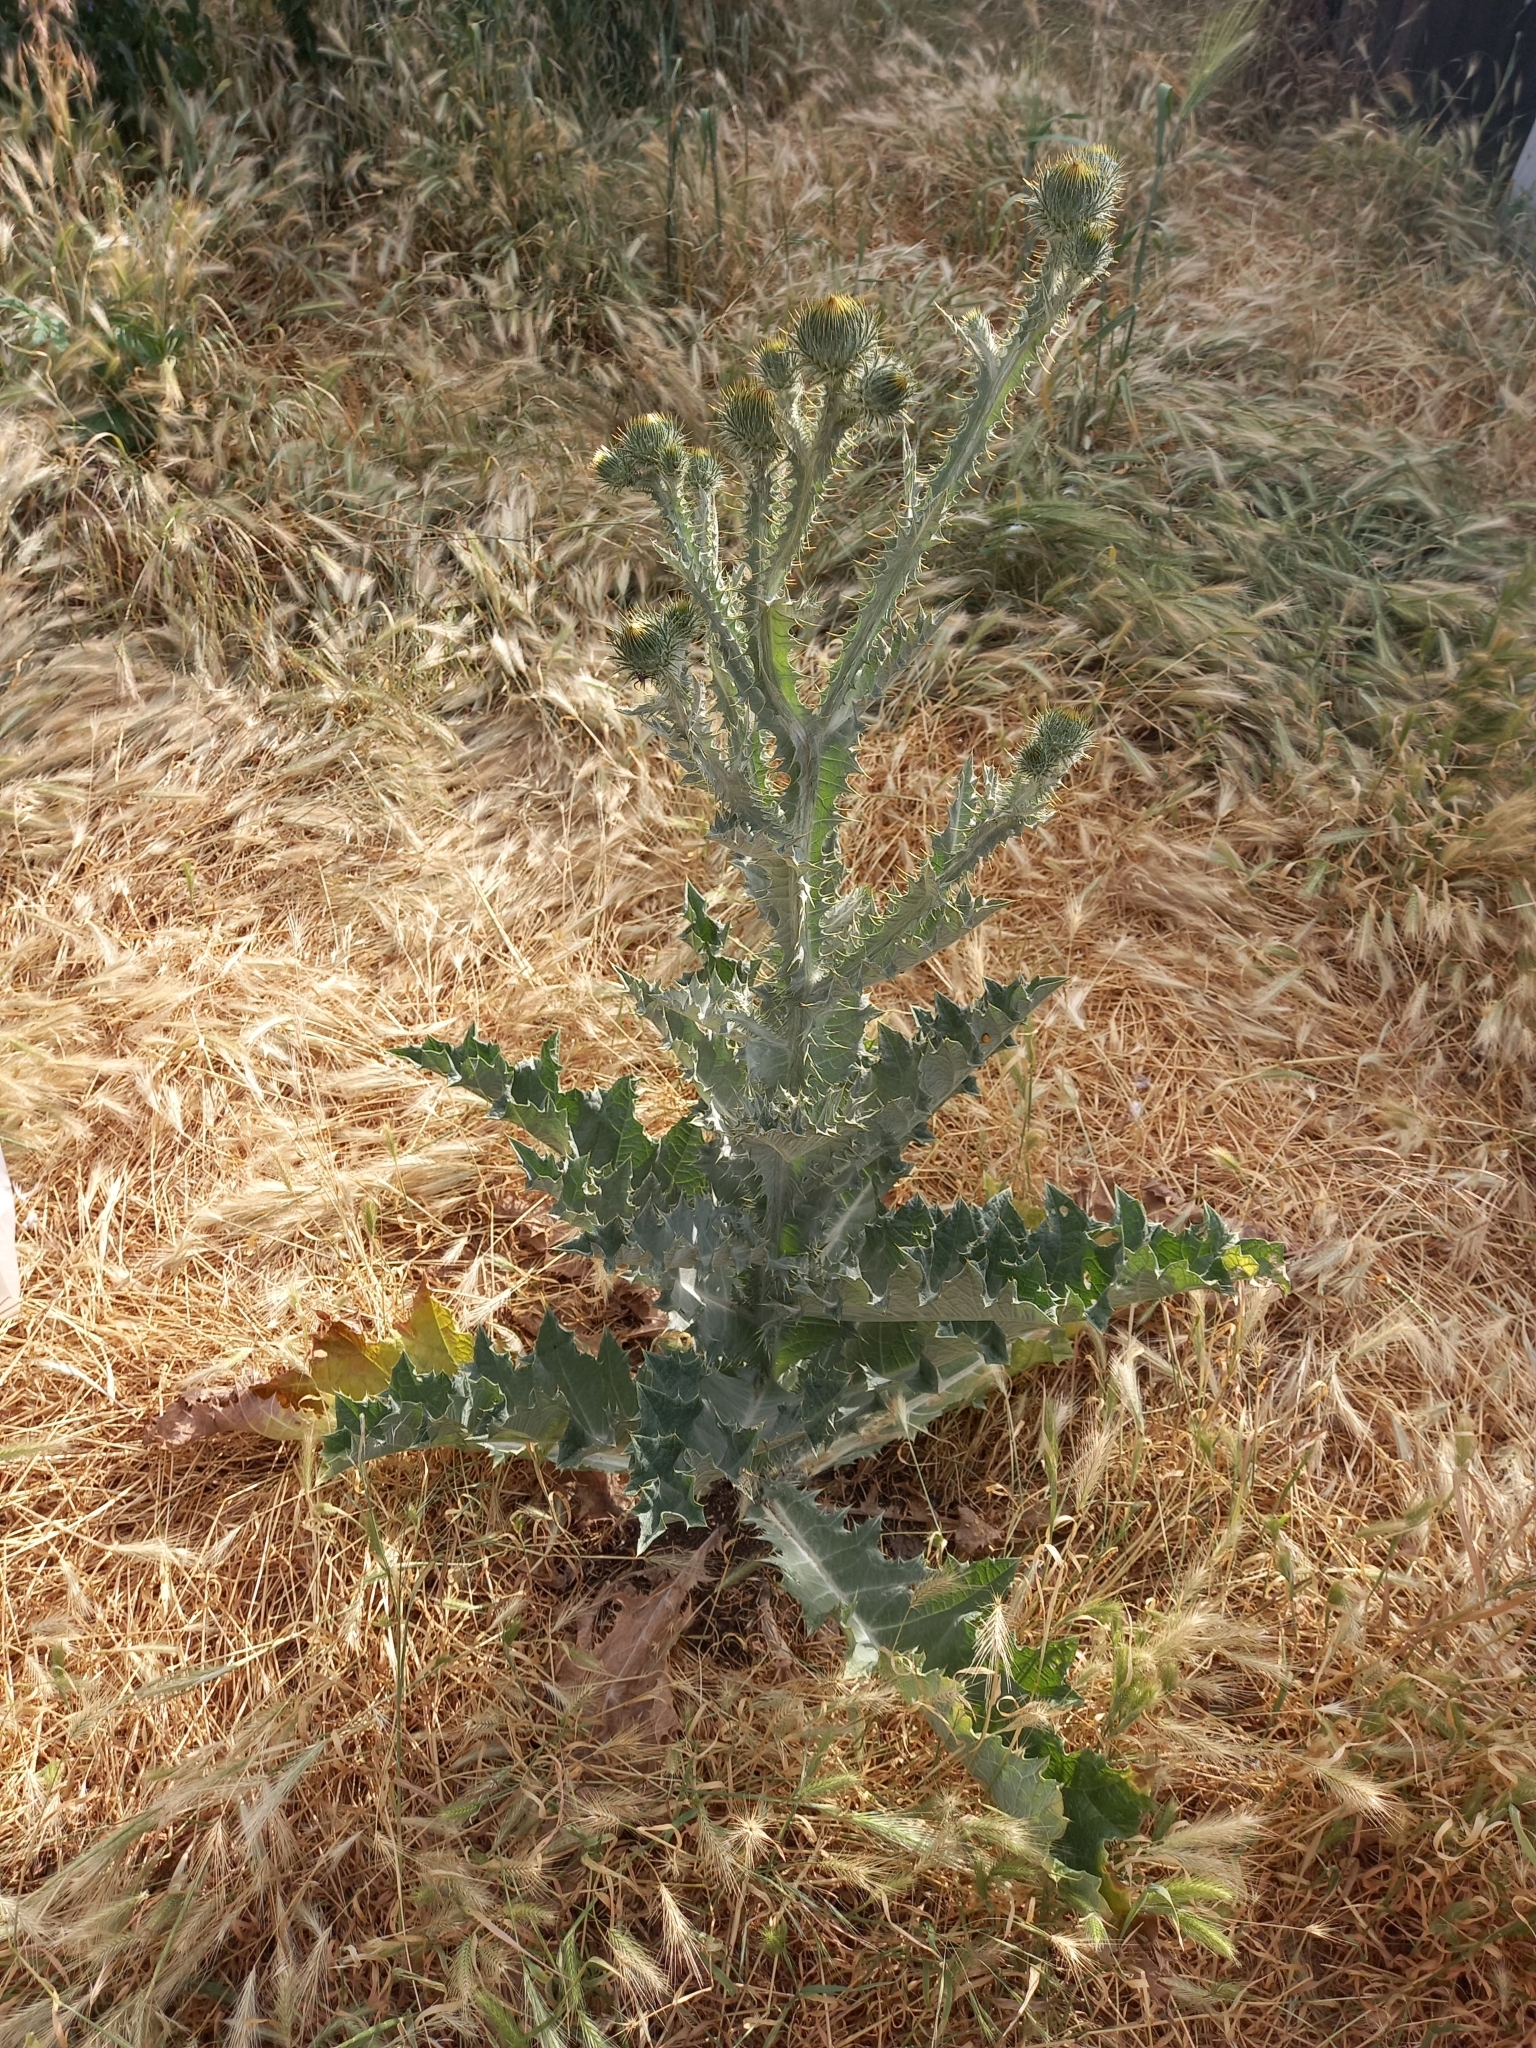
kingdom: Plantae
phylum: Tracheophyta
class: Magnoliopsida
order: Asterales
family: Asteraceae
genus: Onopordum
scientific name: Onopordum acanthium
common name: Scotch thistle
